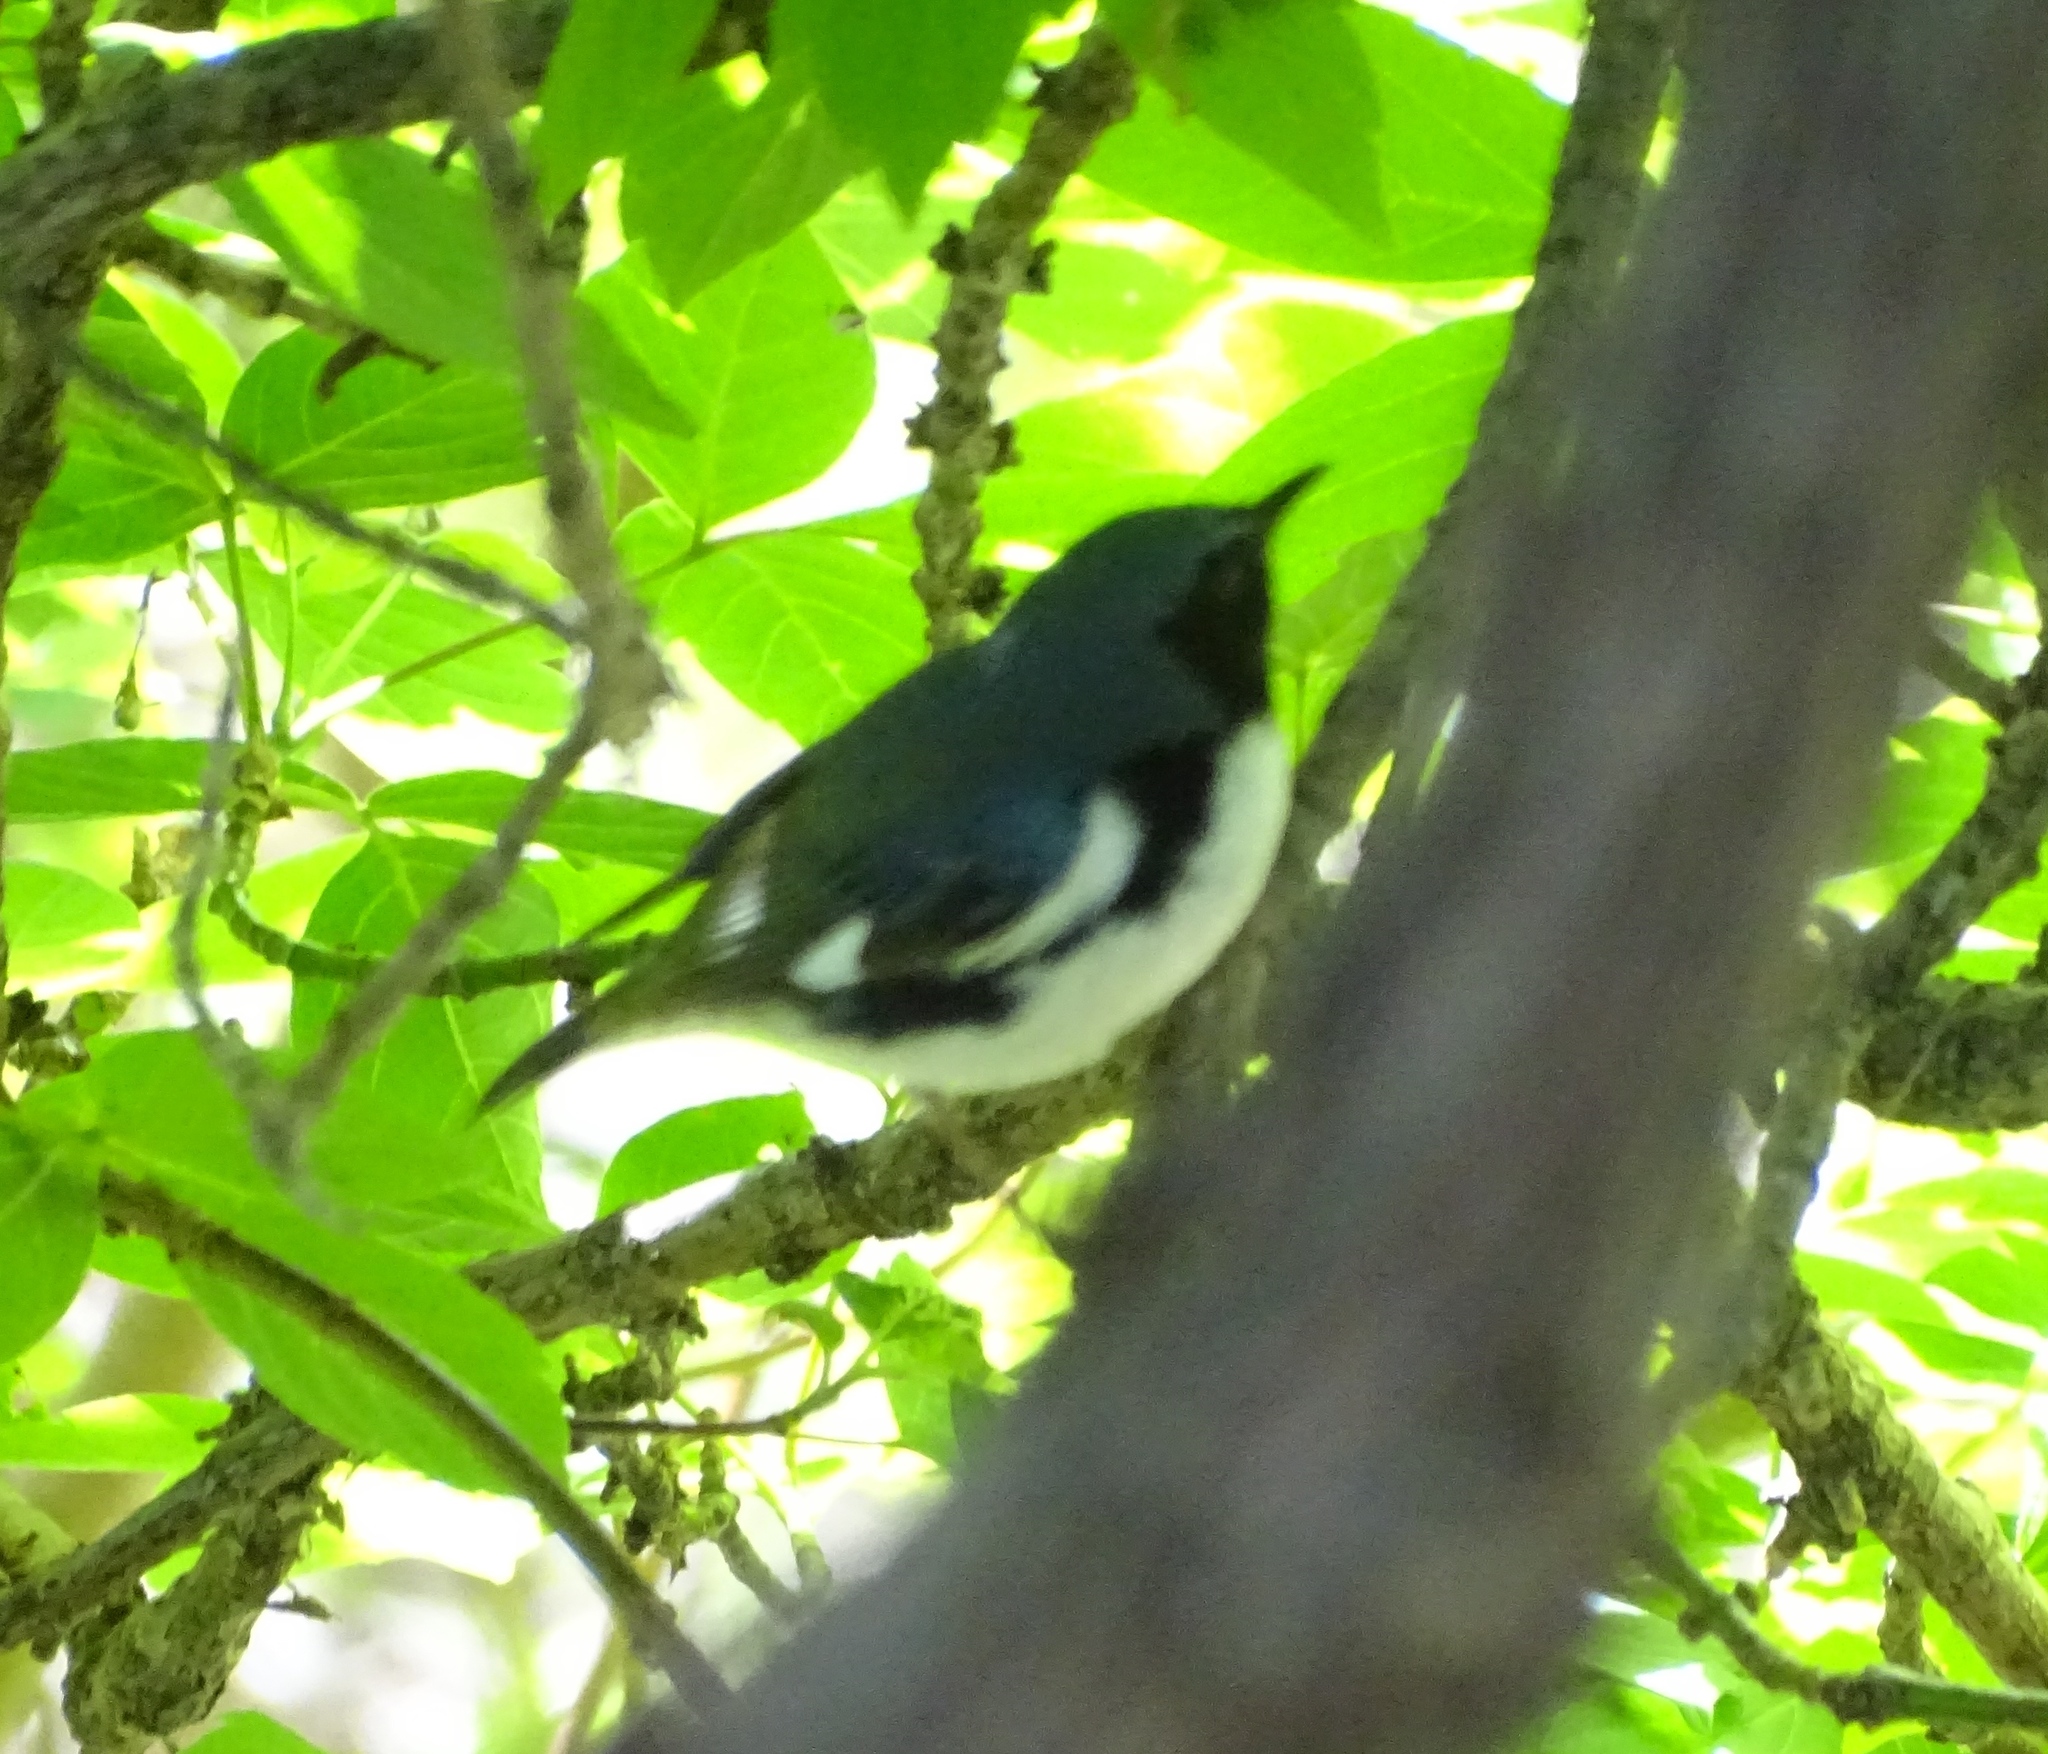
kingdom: Animalia
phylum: Chordata
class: Aves
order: Passeriformes
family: Parulidae
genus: Setophaga
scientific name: Setophaga caerulescens
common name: Black-throated blue warbler
